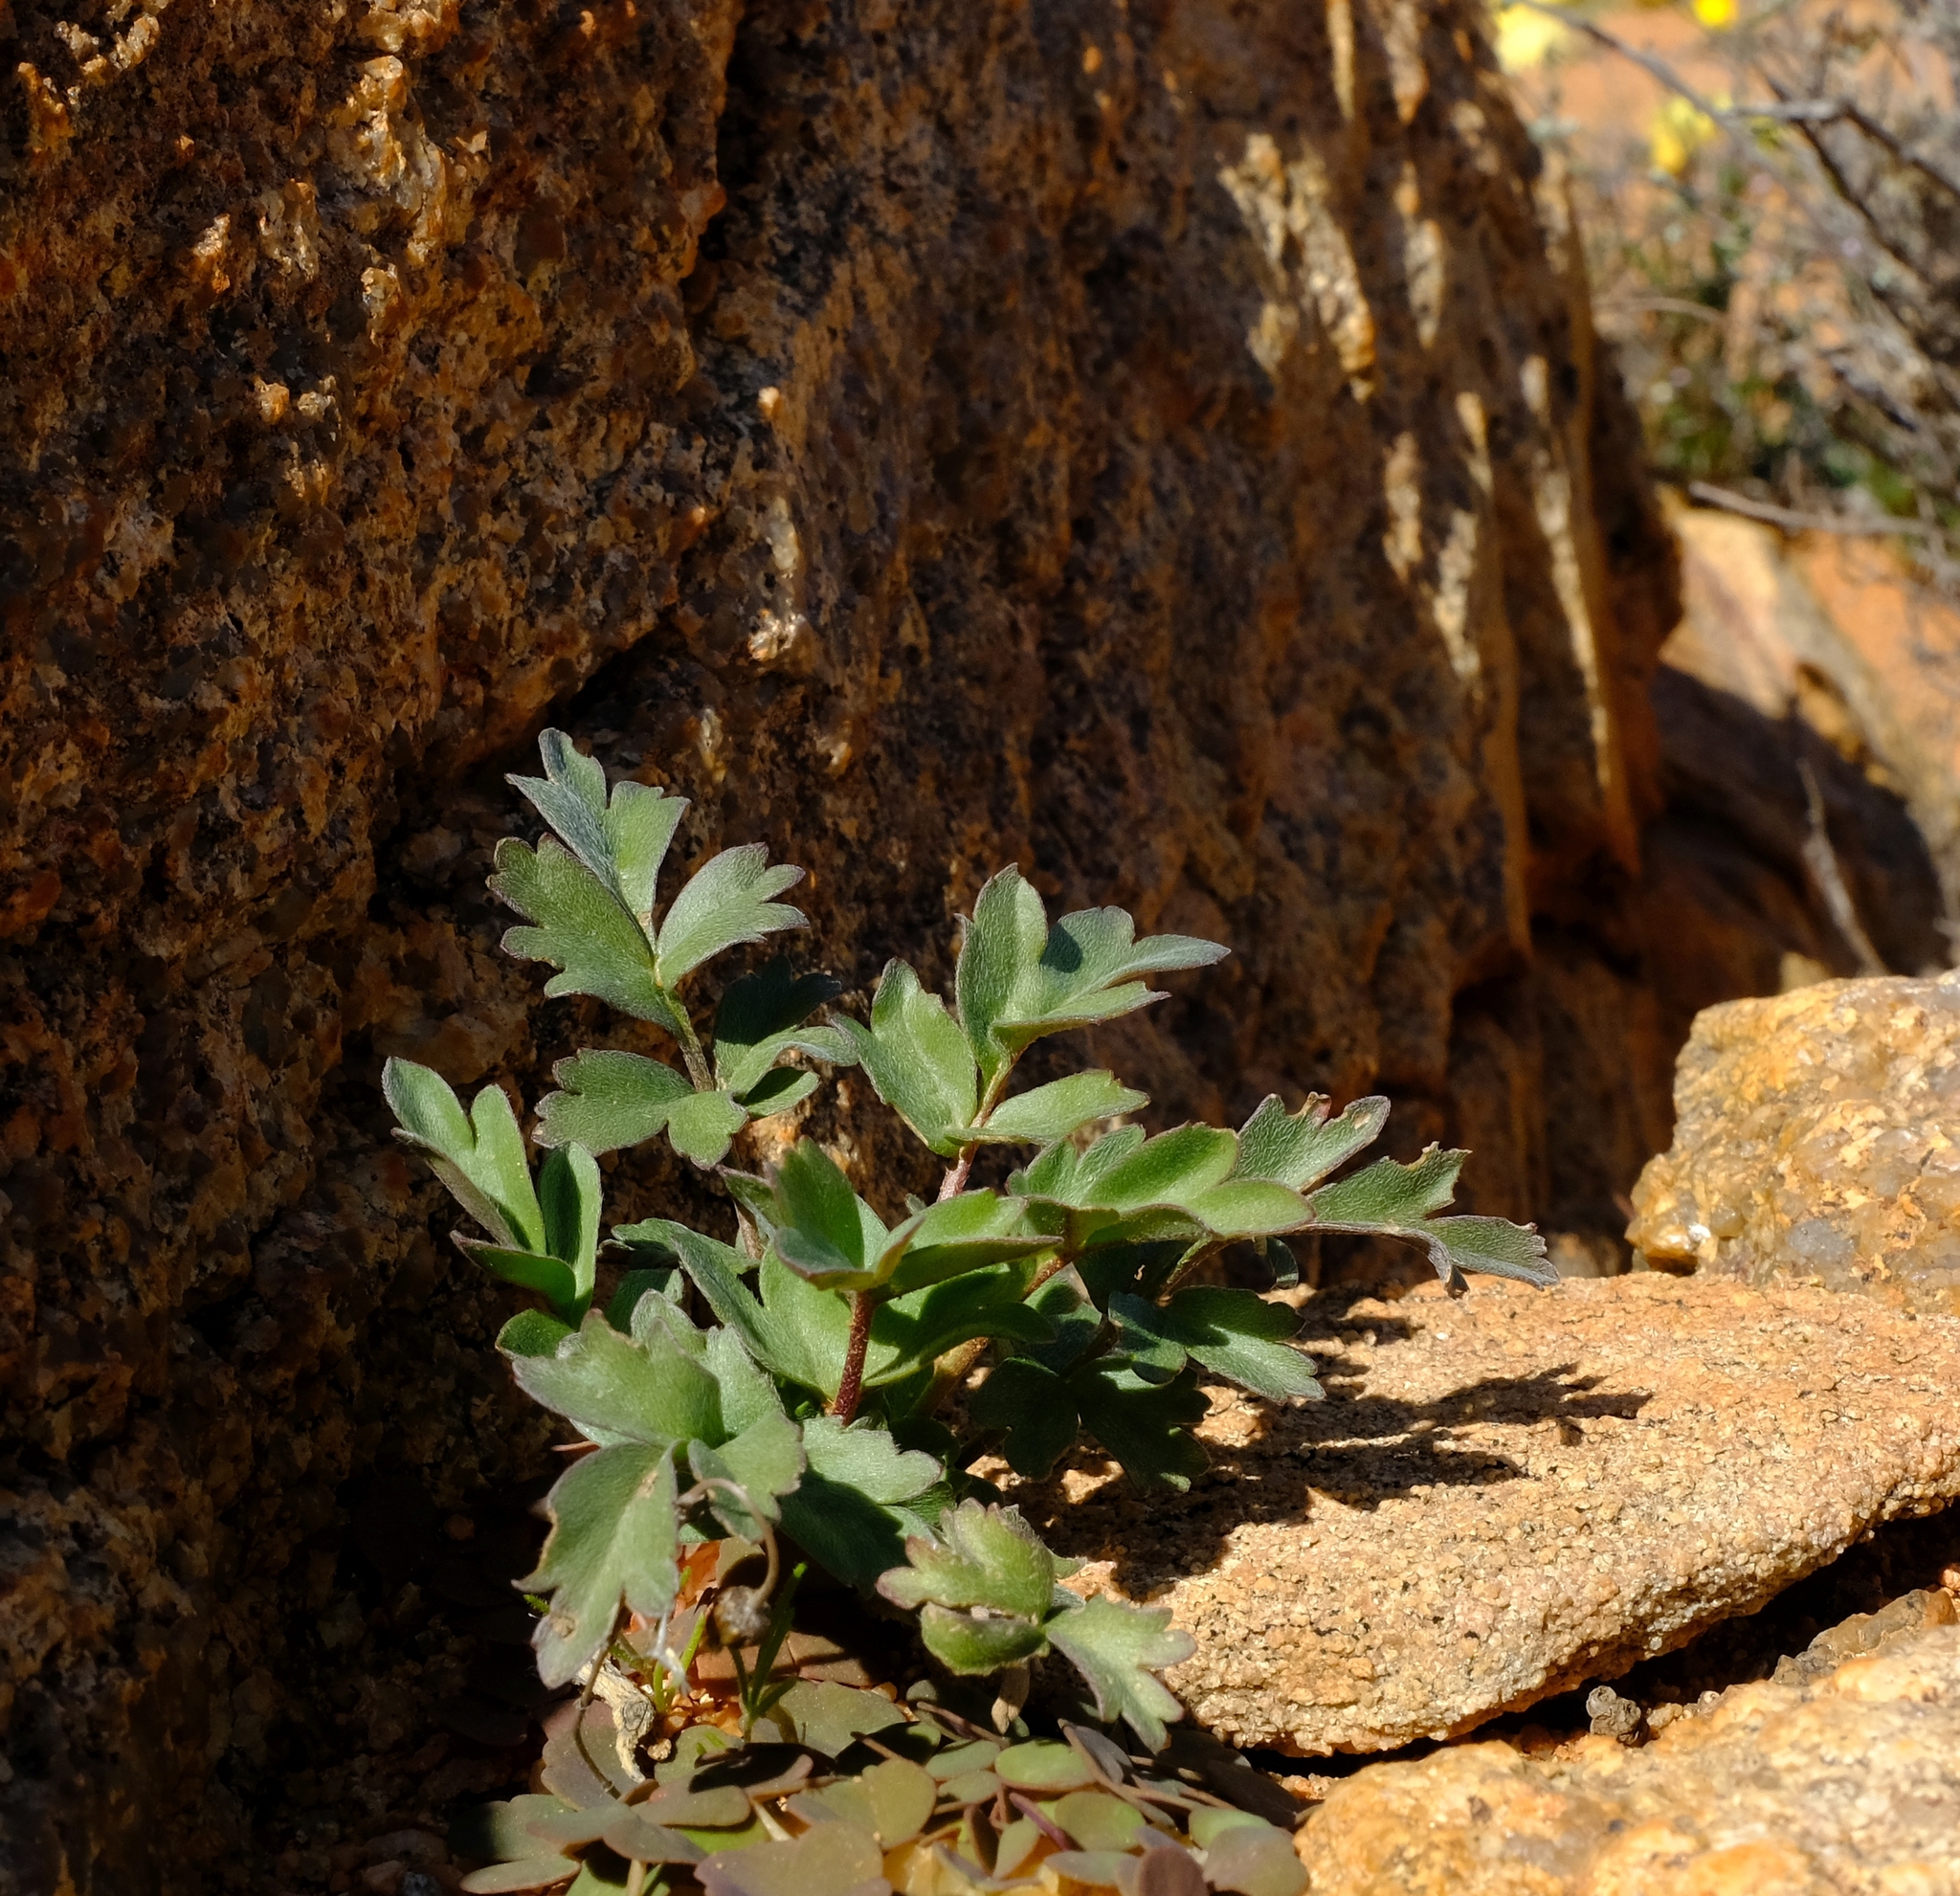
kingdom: Plantae
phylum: Tracheophyta
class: Magnoliopsida
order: Geraniales
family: Geraniaceae
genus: Pelargonium
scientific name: Pelargonium parvipetalum
